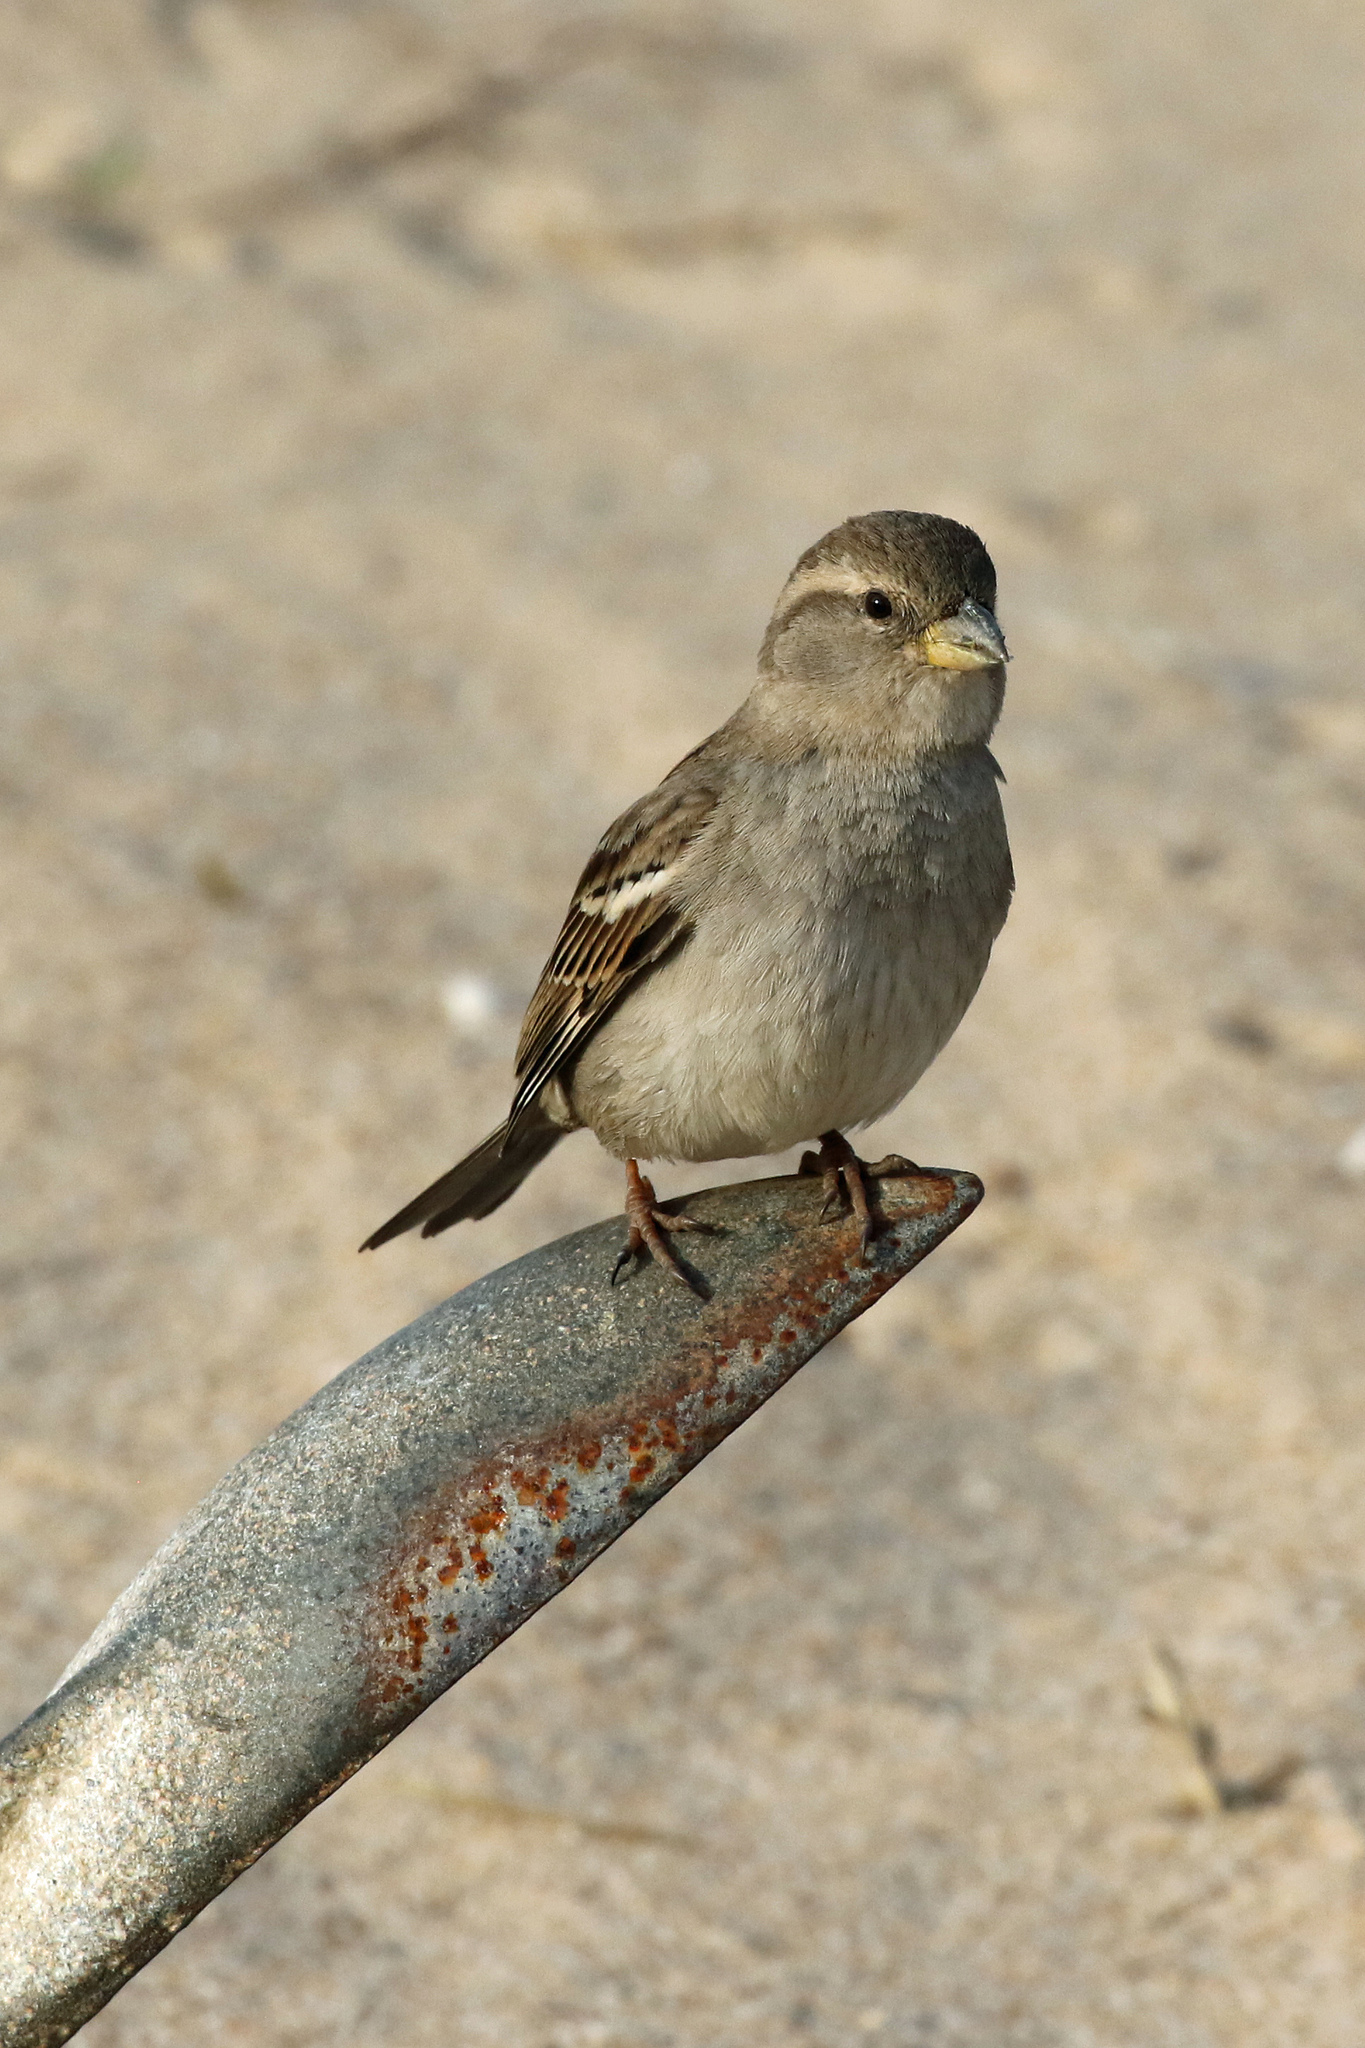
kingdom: Animalia
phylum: Chordata
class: Aves
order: Passeriformes
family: Passeridae
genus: Passer
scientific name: Passer domesticus
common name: House sparrow
